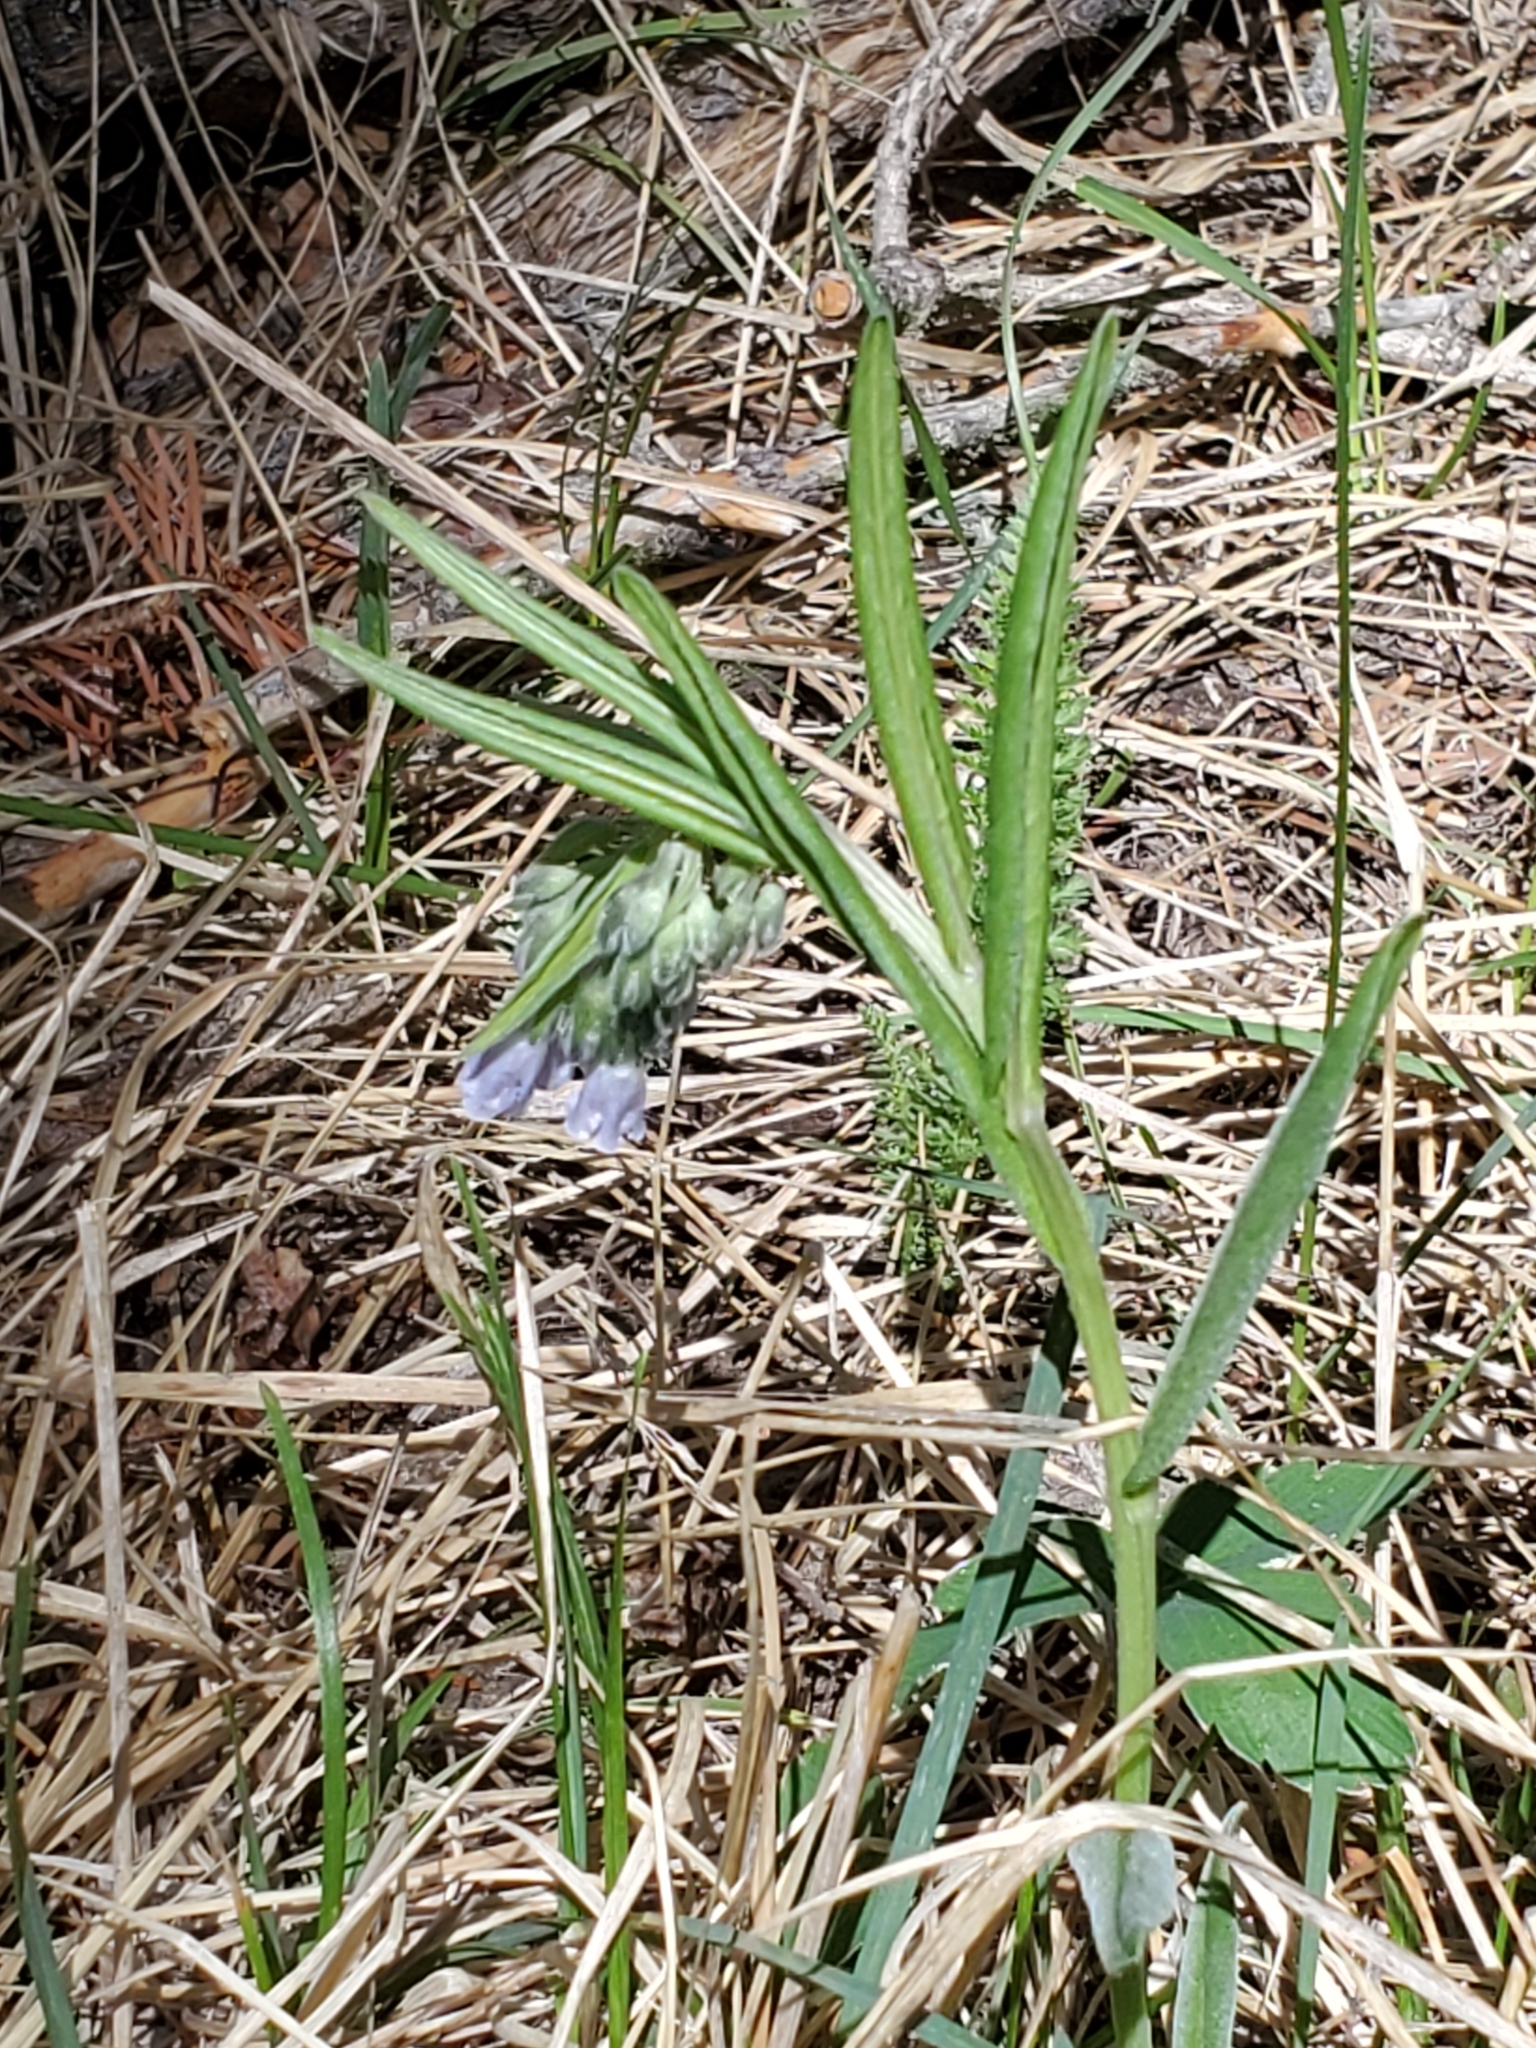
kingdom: Plantae
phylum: Tracheophyta
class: Magnoliopsida
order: Boraginales
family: Boraginaceae
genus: Mertensia
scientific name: Mertensia fendleri
